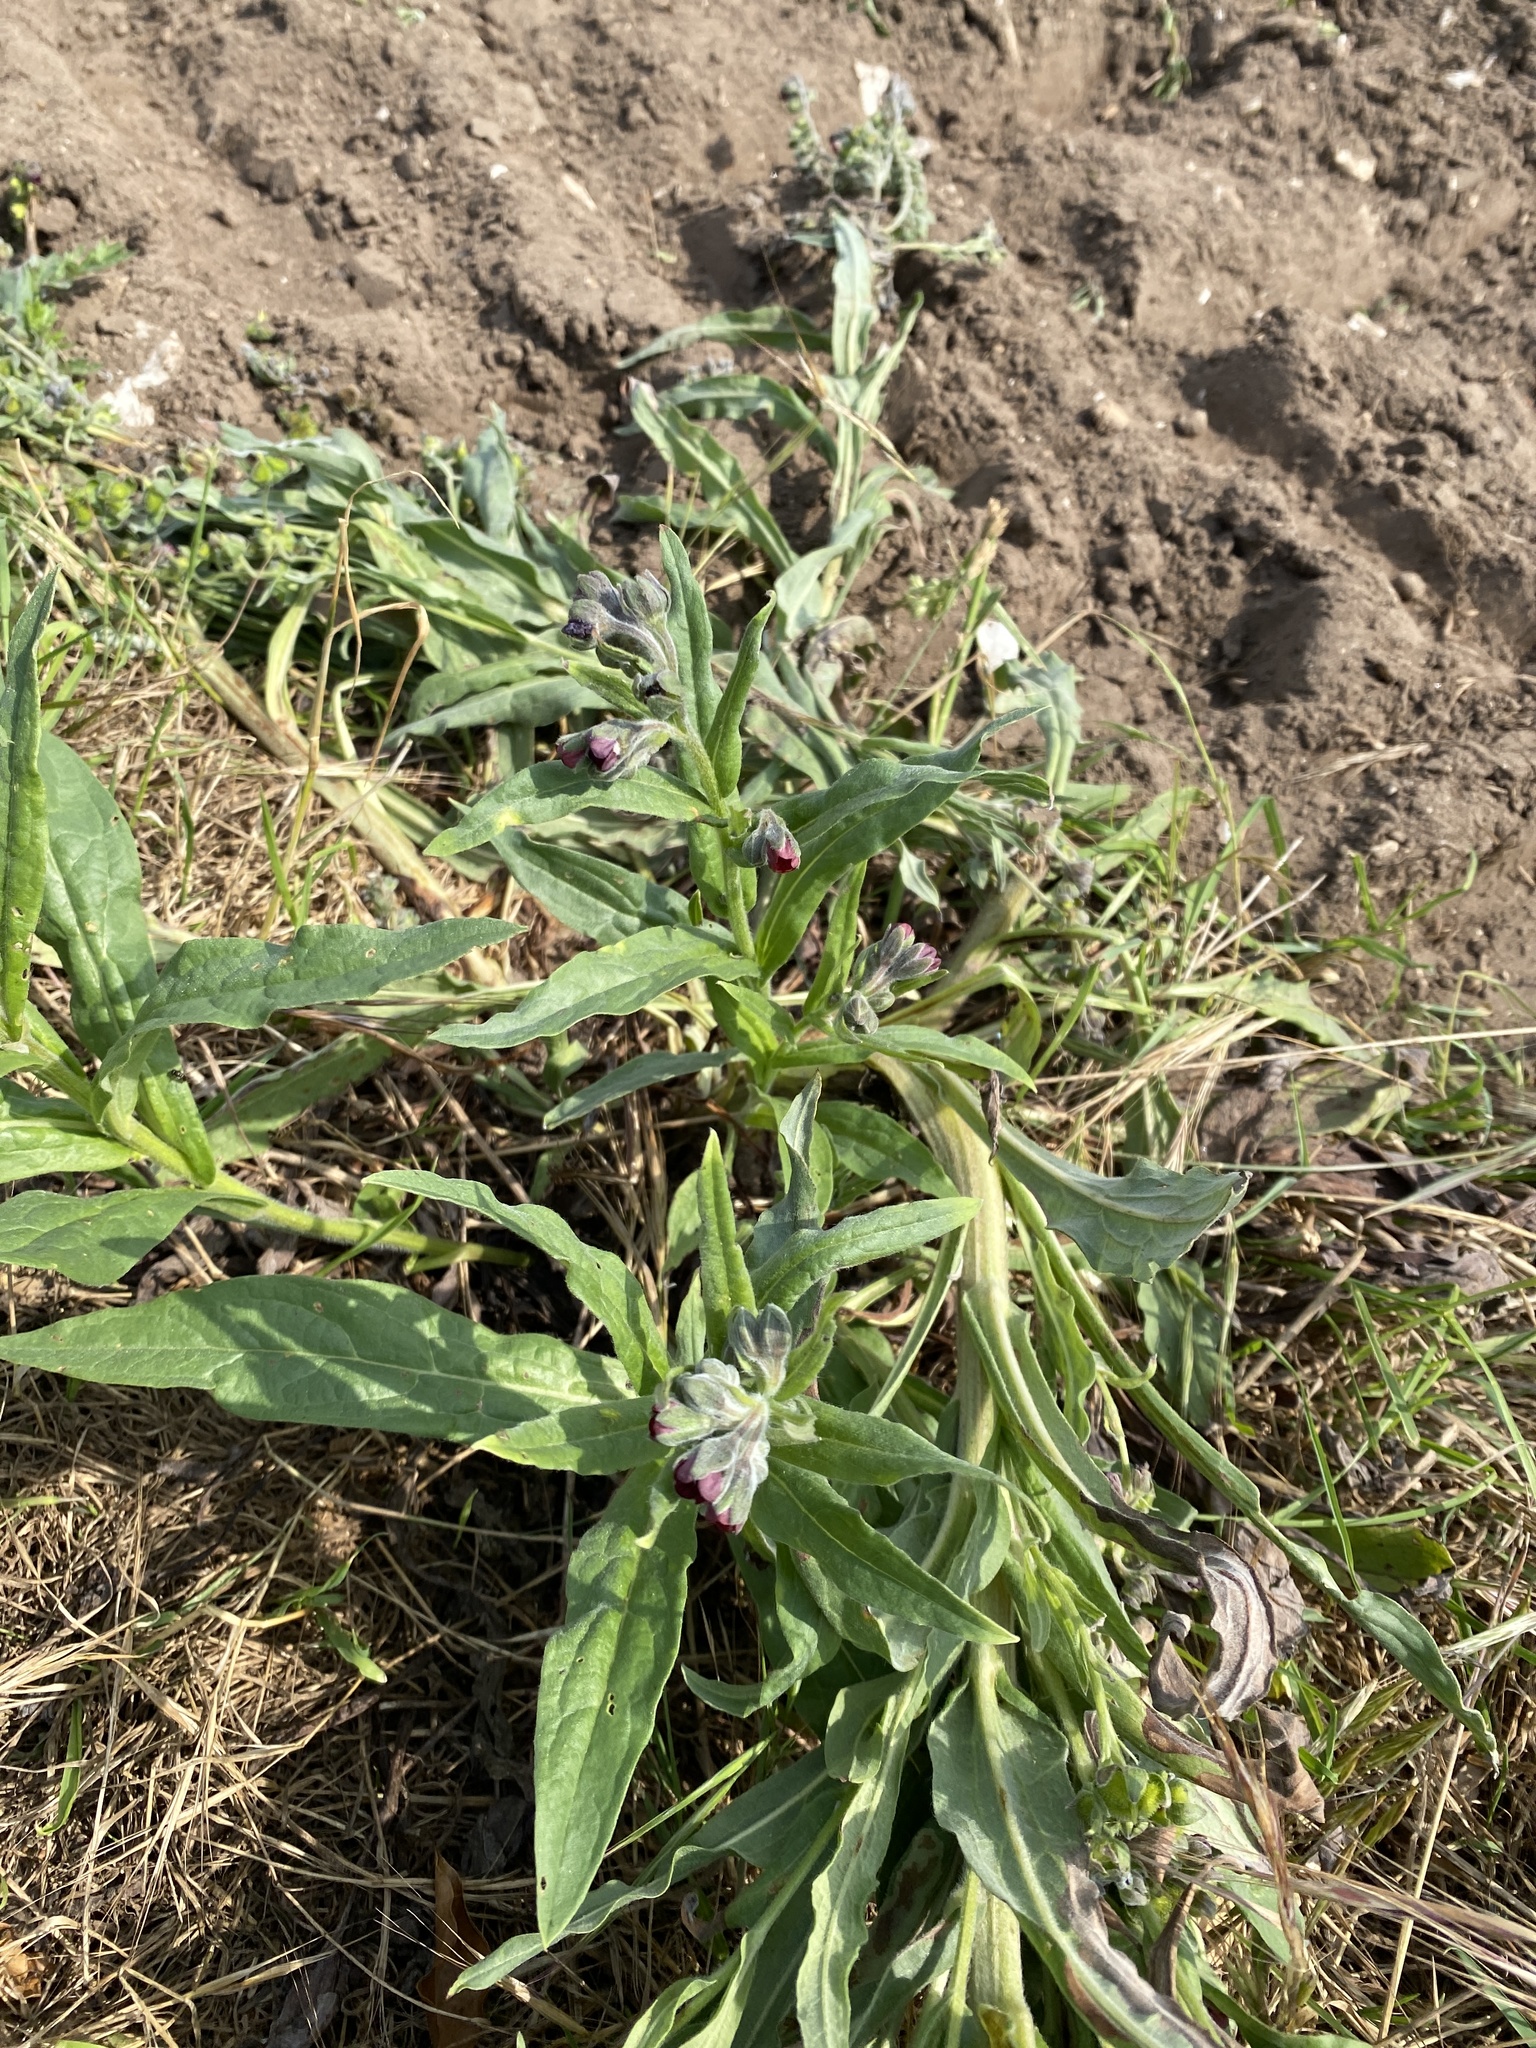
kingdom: Plantae
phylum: Tracheophyta
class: Magnoliopsida
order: Boraginales
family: Boraginaceae
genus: Cynoglossum
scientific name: Cynoglossum officinale
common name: Hound's-tongue
